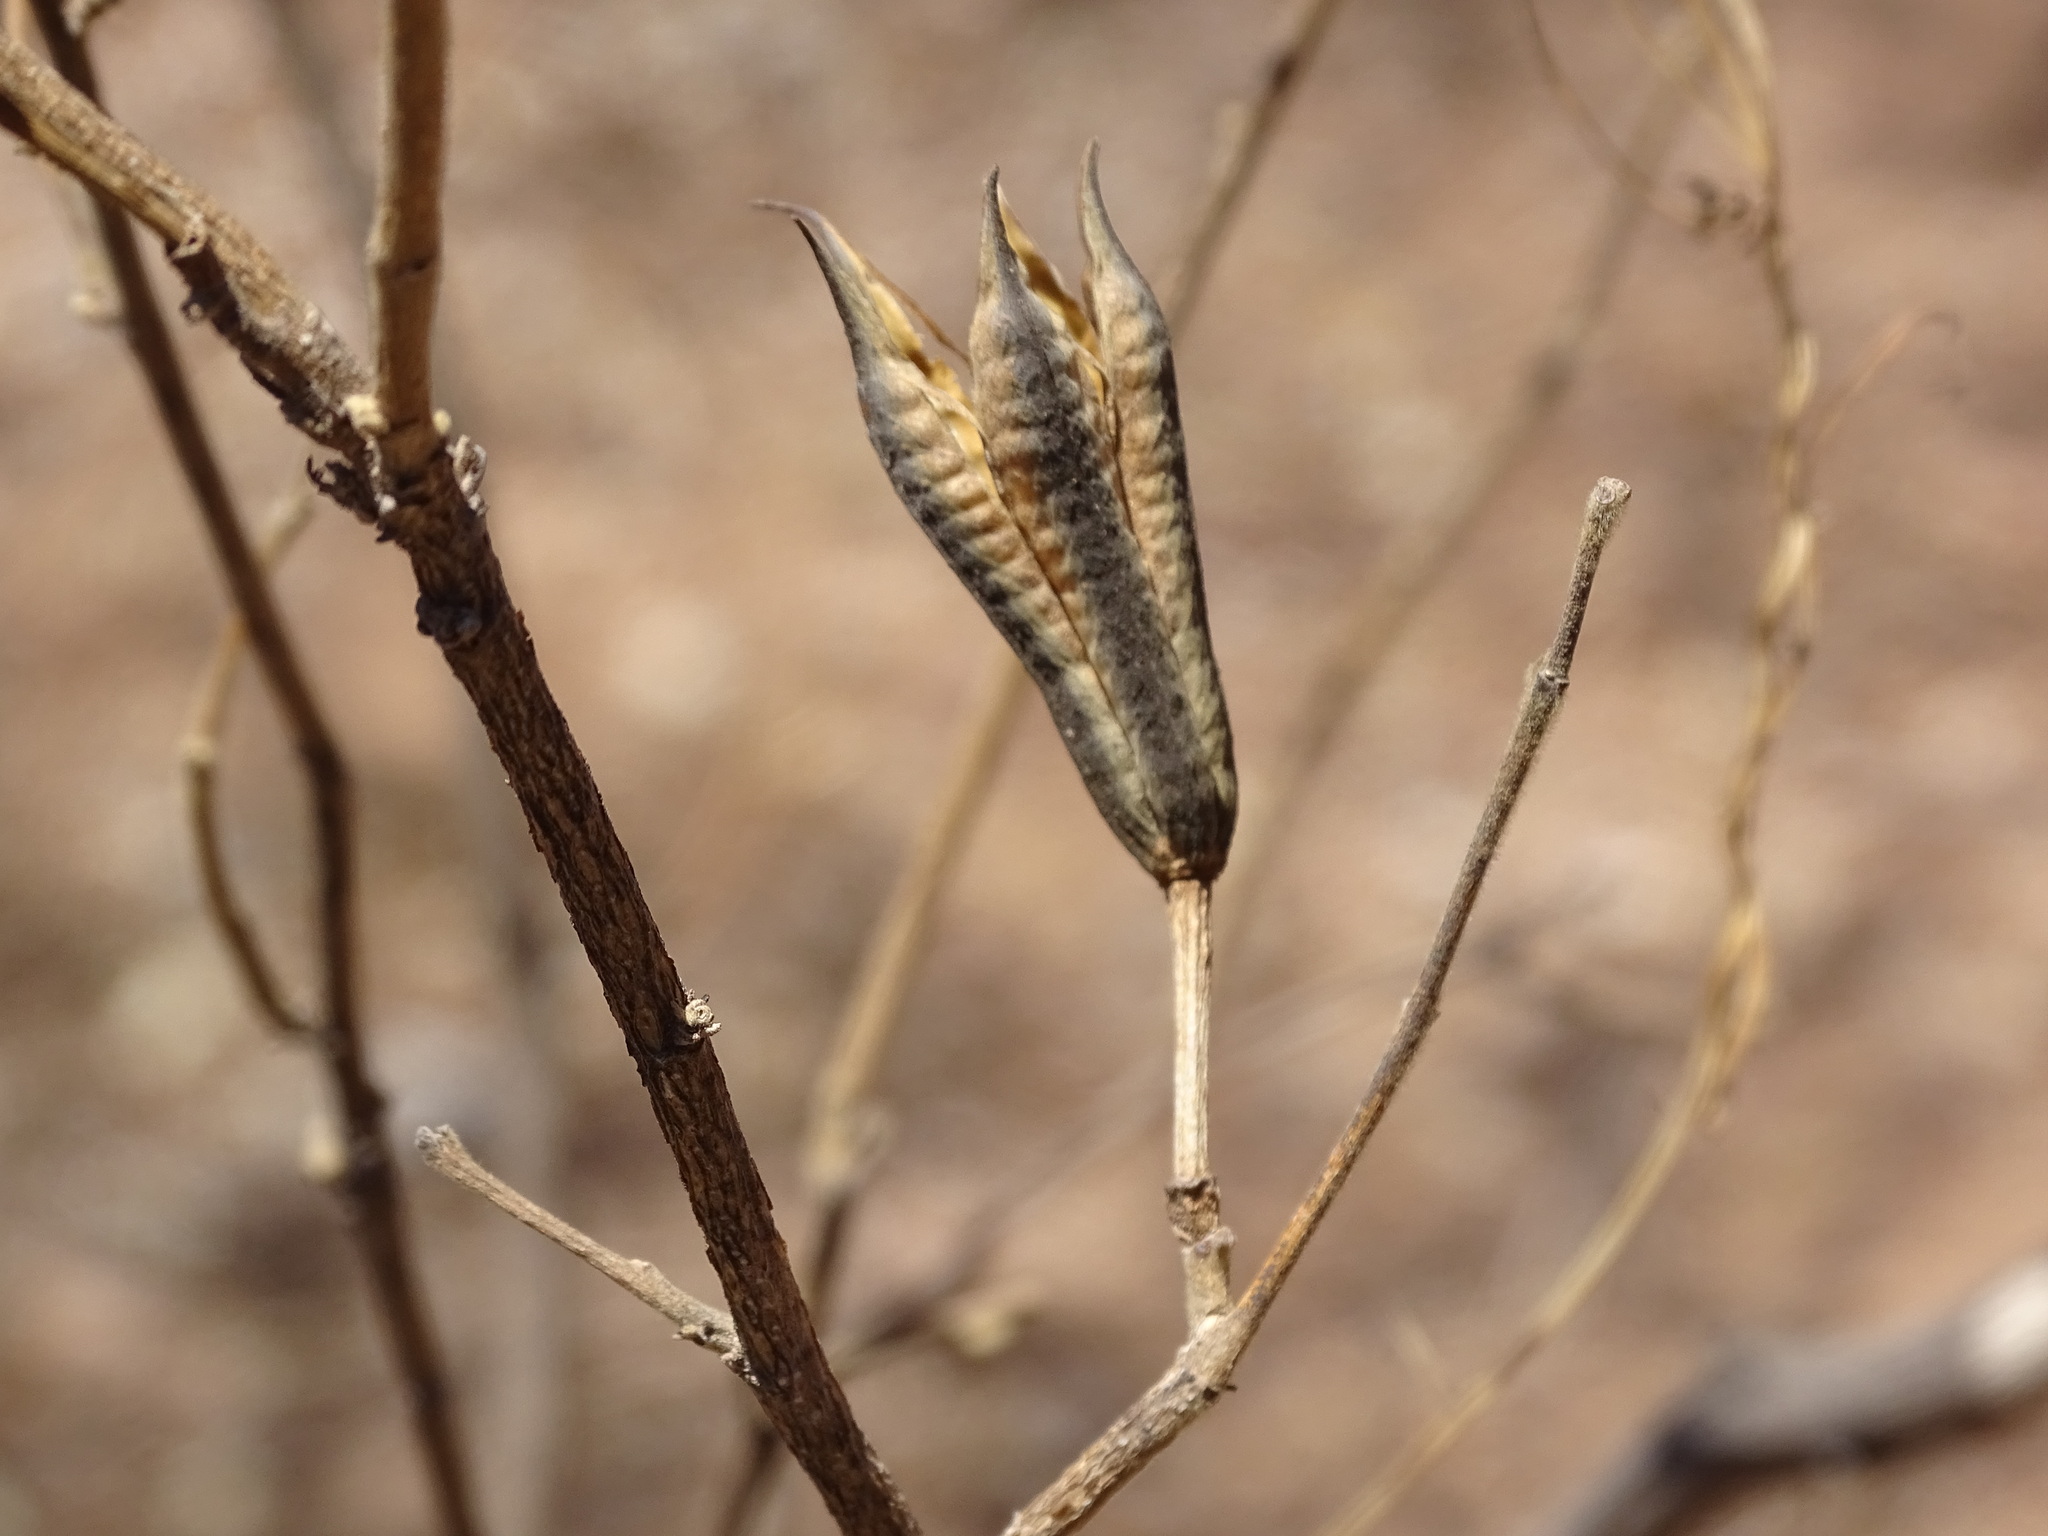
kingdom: Plantae
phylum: Tracheophyta
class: Magnoliopsida
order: Malvales
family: Malvaceae
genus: Helicteres
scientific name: Helicteres vegae
